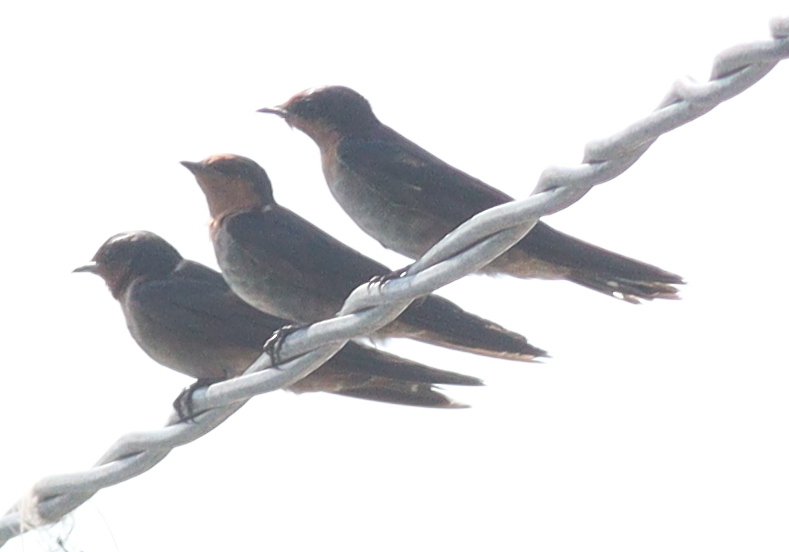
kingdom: Animalia
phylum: Chordata
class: Aves
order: Passeriformes
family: Hirundinidae
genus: Hirundo
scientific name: Hirundo tahitica
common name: Pacific swallow
